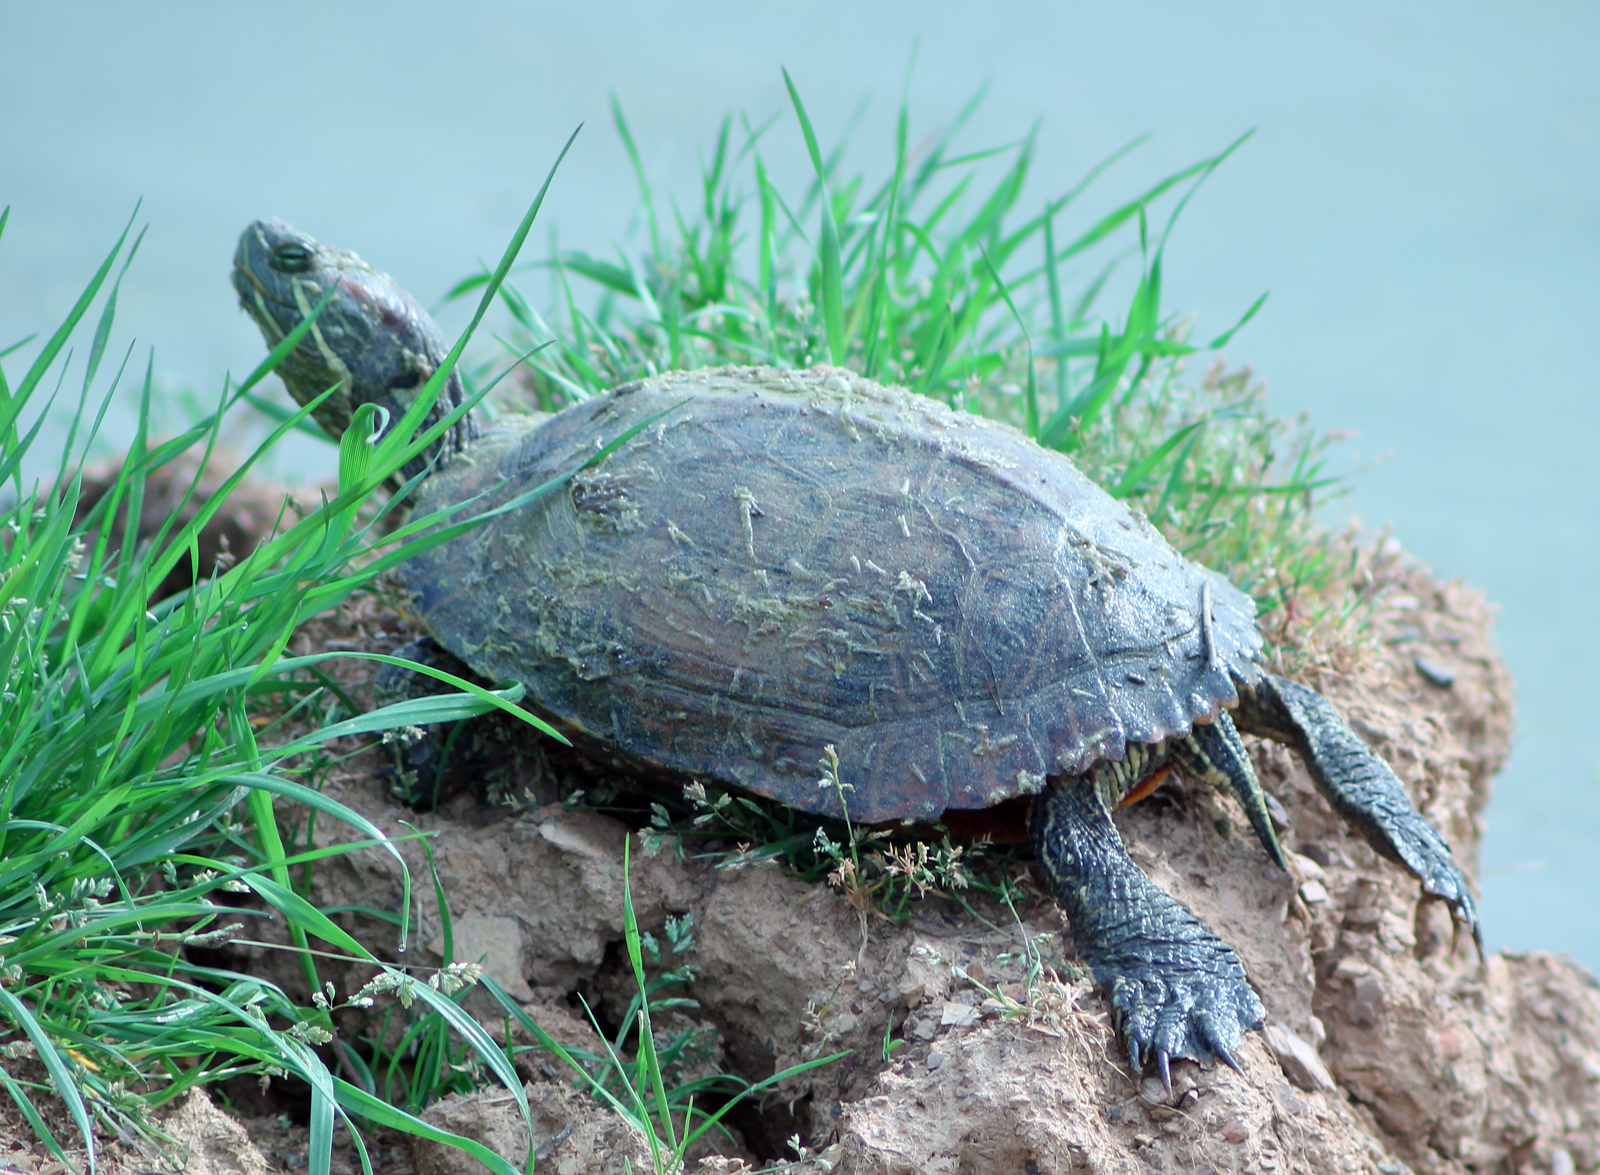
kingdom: Animalia
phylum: Chordata
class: Testudines
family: Emydidae
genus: Trachemys
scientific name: Trachemys scripta
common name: Slider
